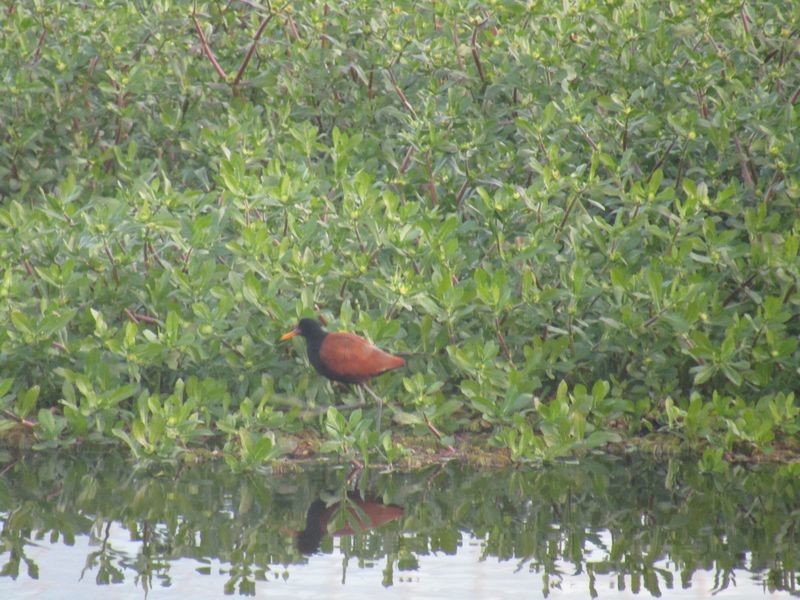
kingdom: Animalia
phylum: Chordata
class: Aves
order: Charadriiformes
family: Jacanidae
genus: Jacana
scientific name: Jacana jacana
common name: Wattled jacana
